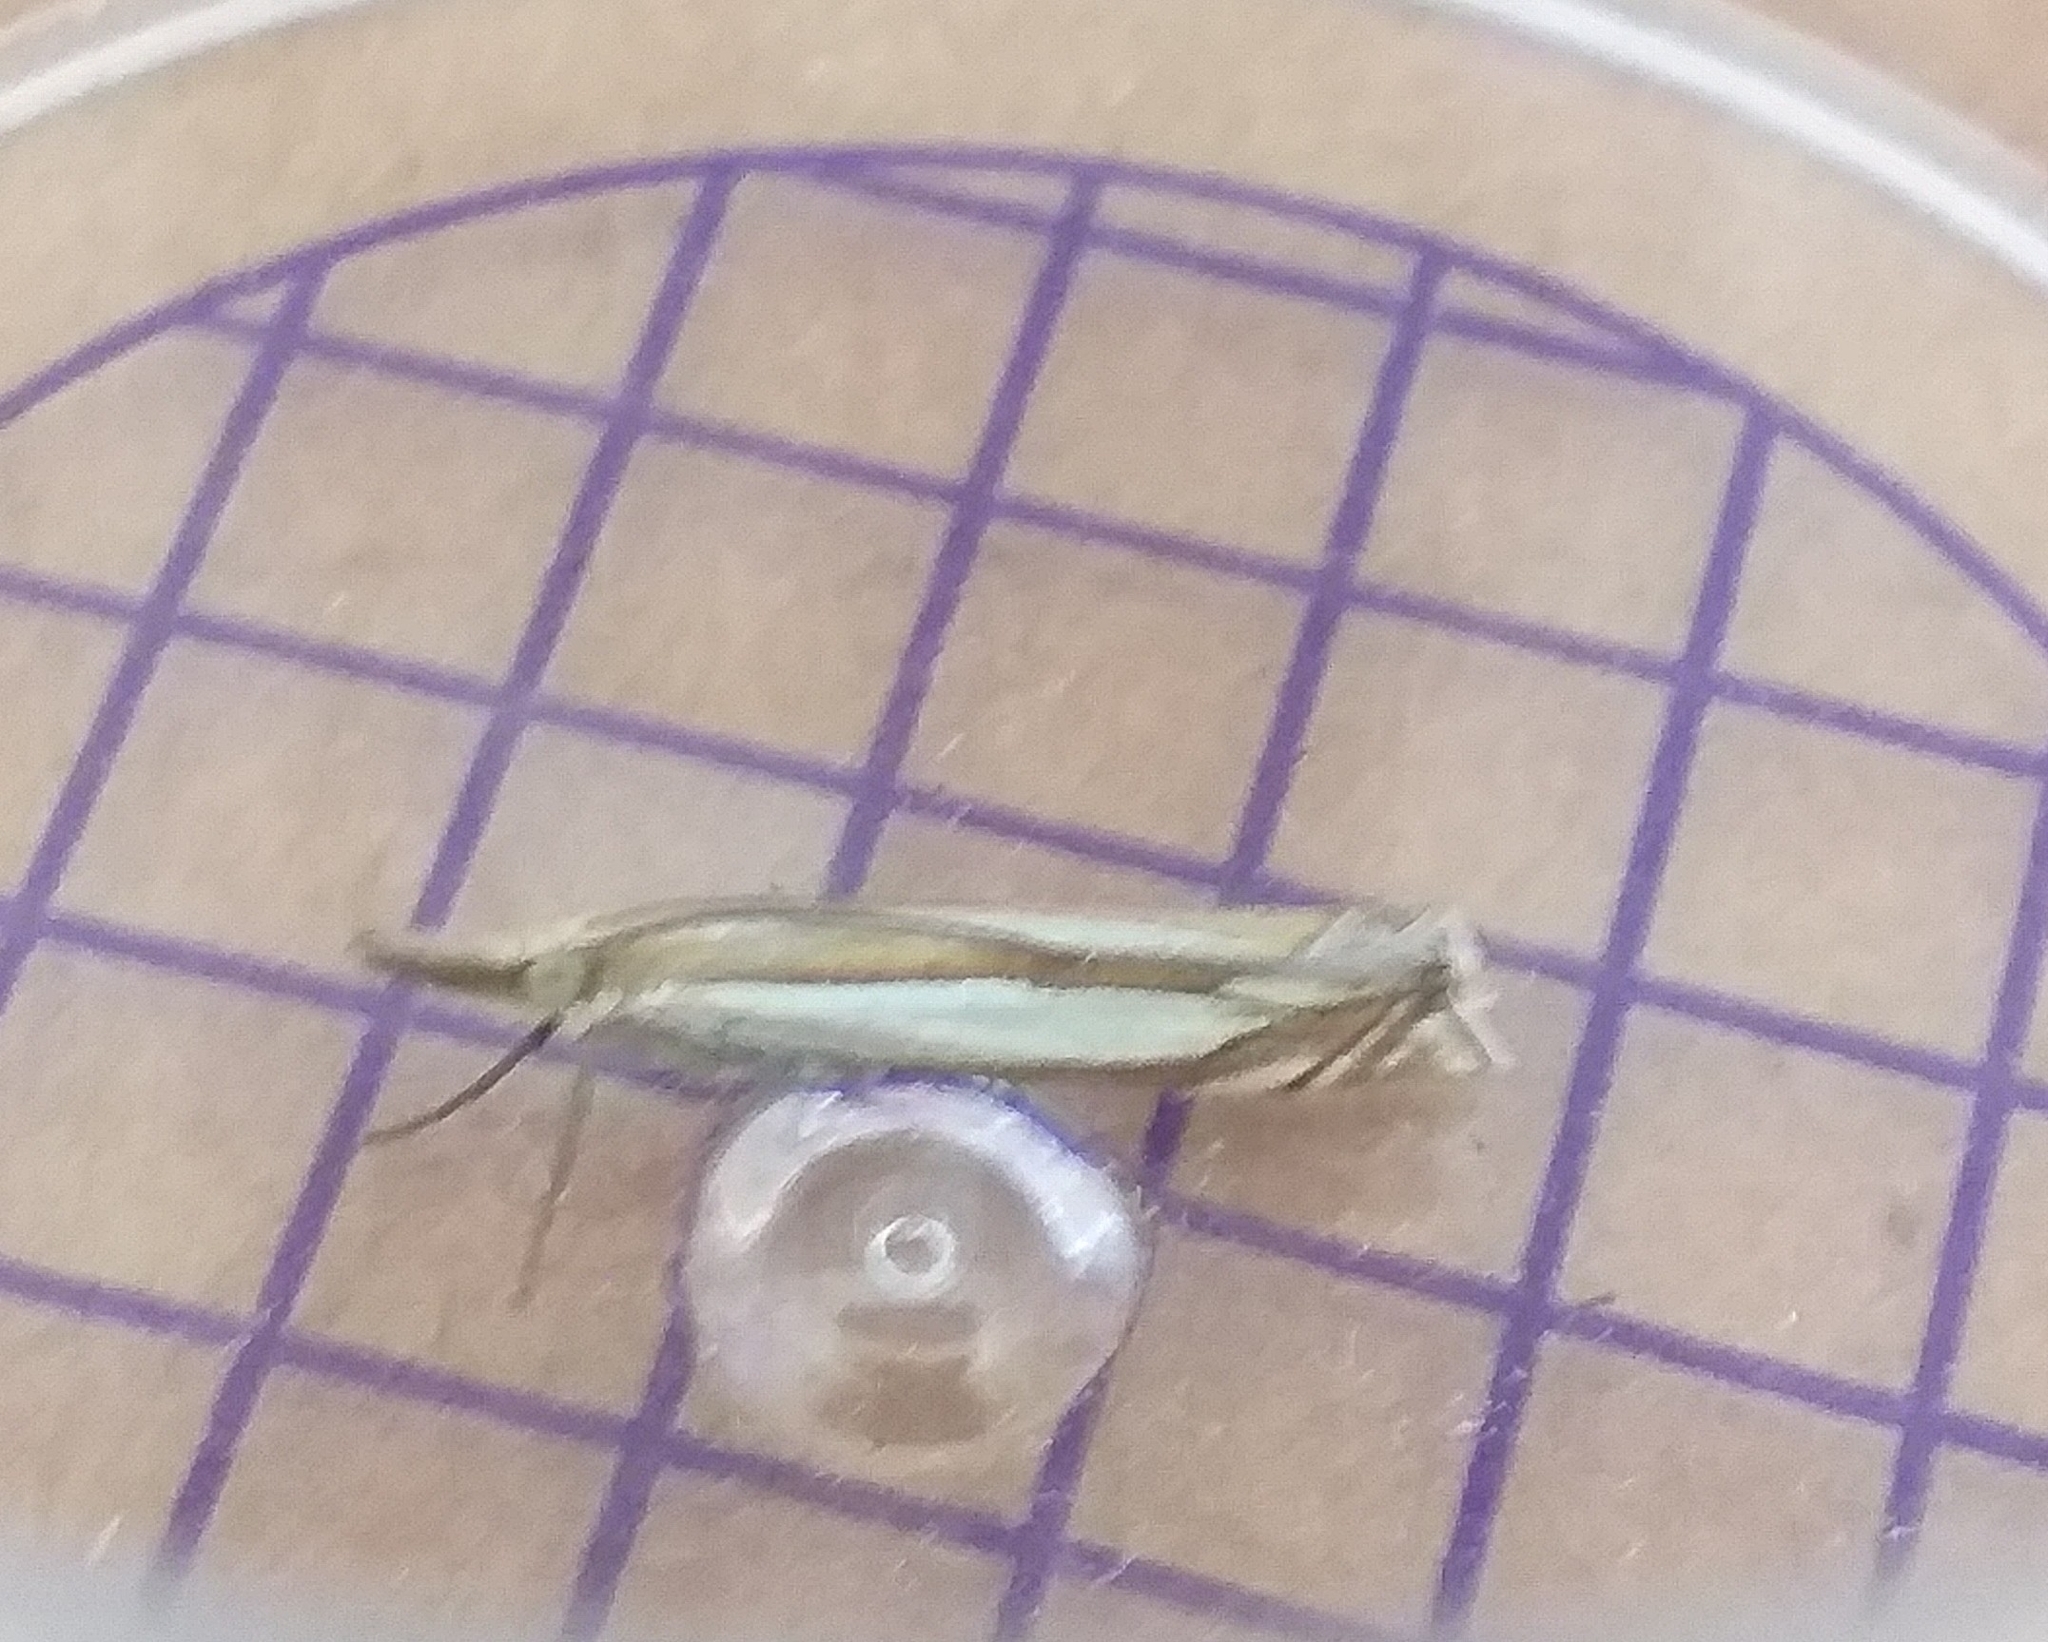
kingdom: Animalia
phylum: Arthropoda
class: Insecta
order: Lepidoptera
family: Crambidae
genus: Crambus
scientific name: Crambus pascuella
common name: Inlaid grass-veneer
